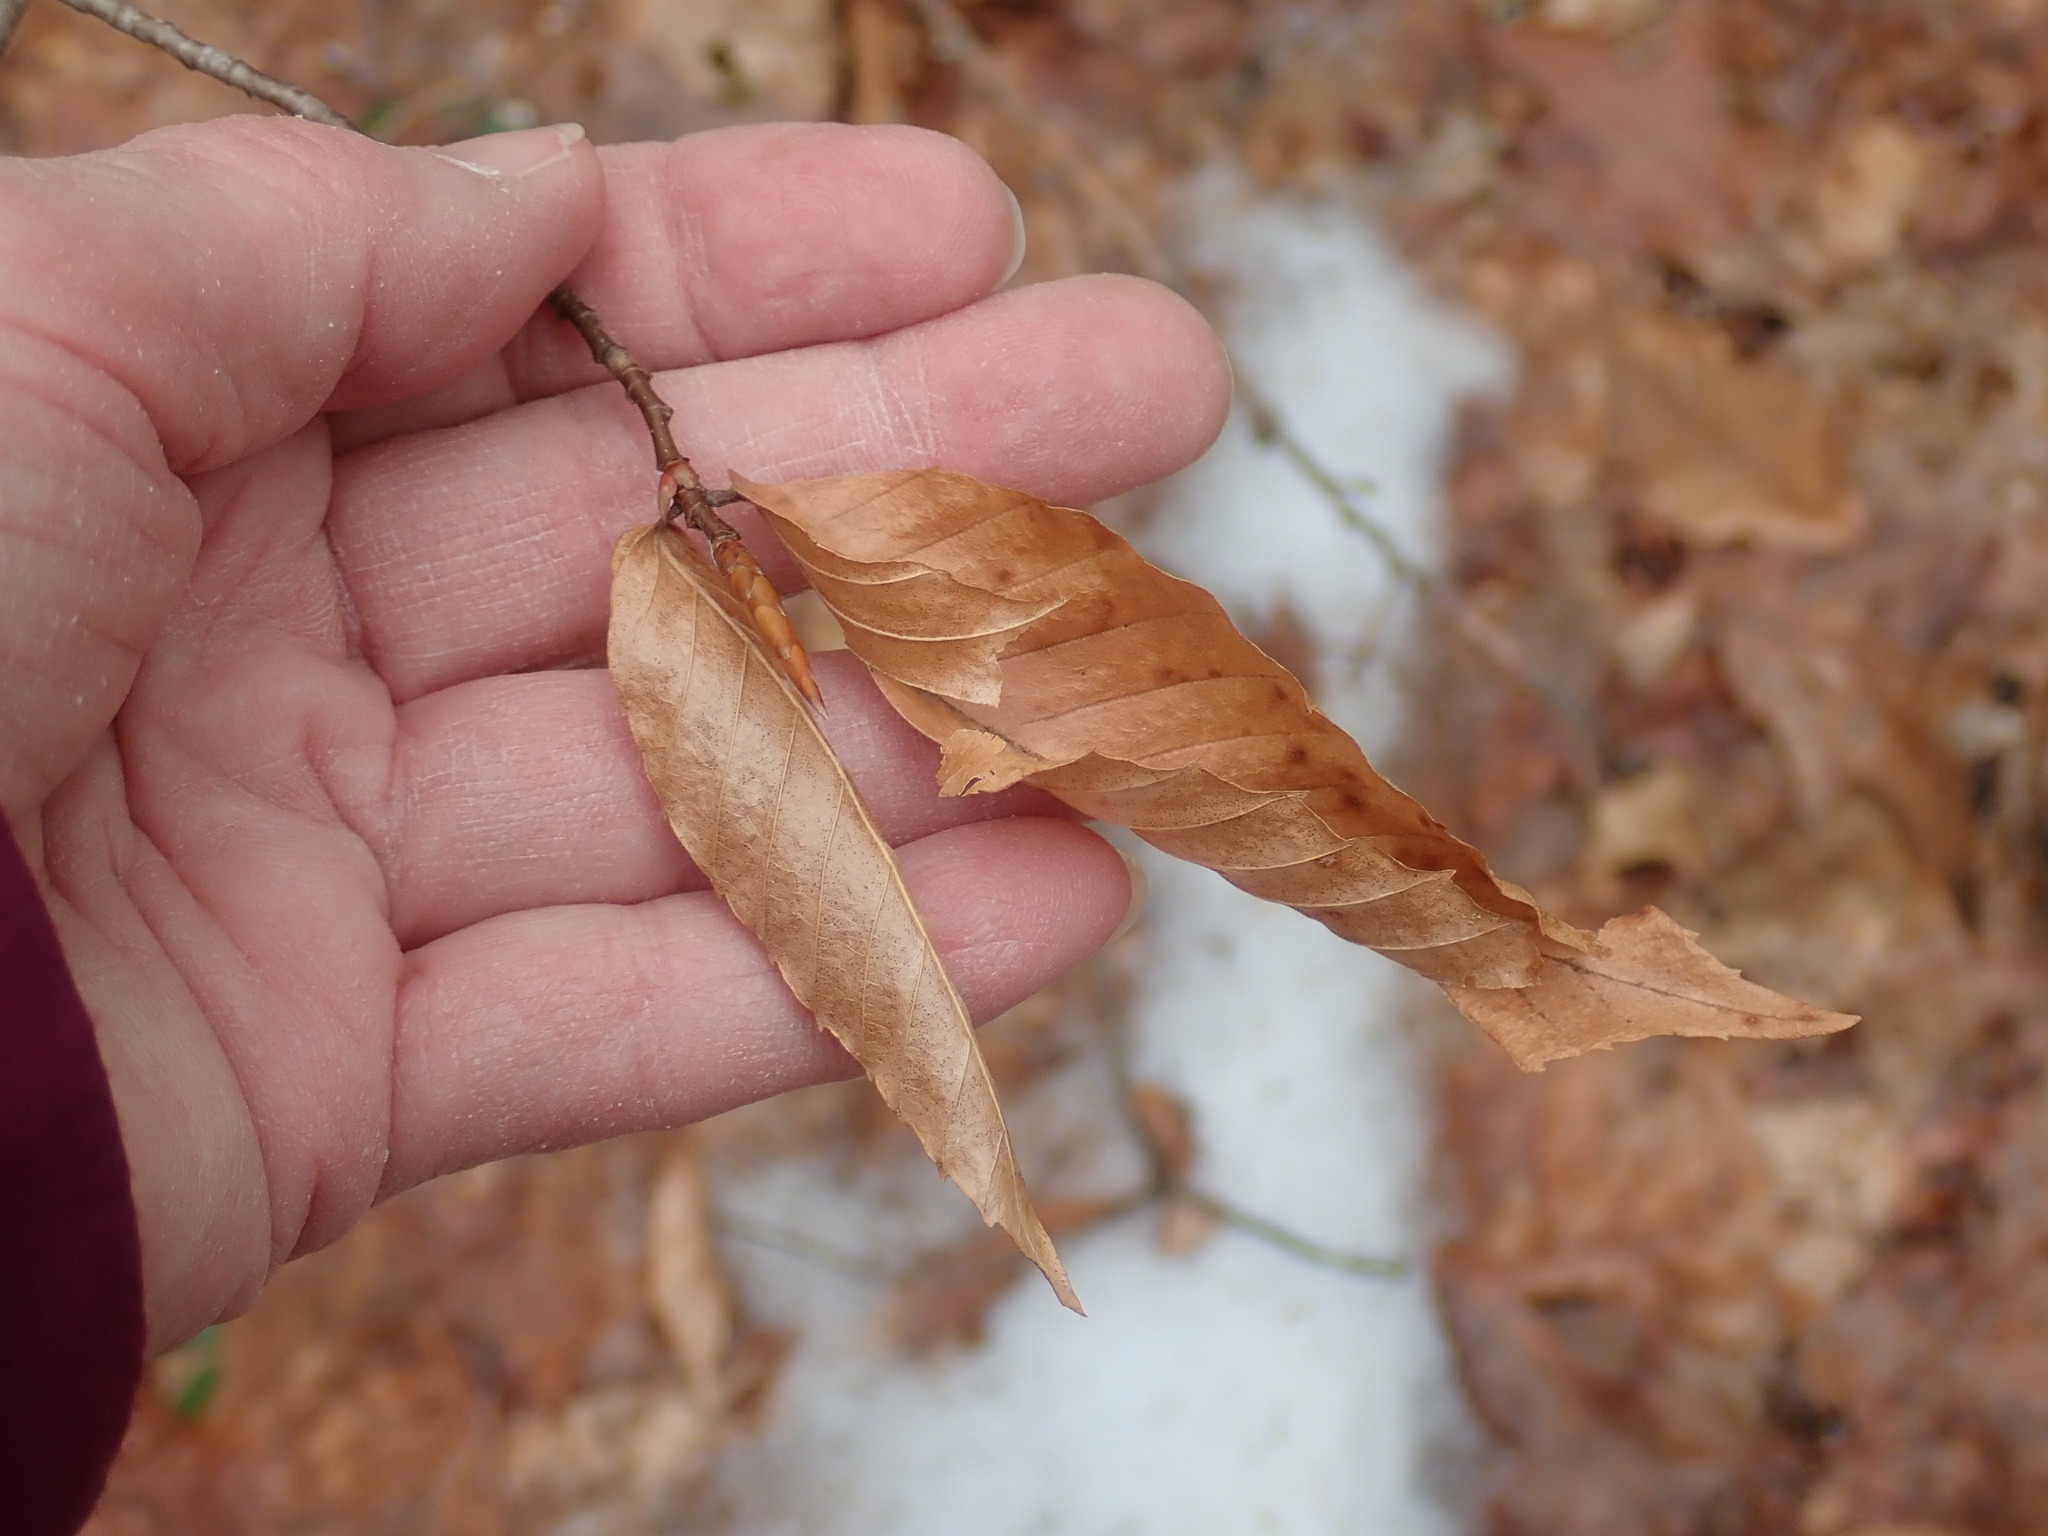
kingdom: Plantae
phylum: Tracheophyta
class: Magnoliopsida
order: Fagales
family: Fagaceae
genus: Fagus
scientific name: Fagus grandifolia
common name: American beech
